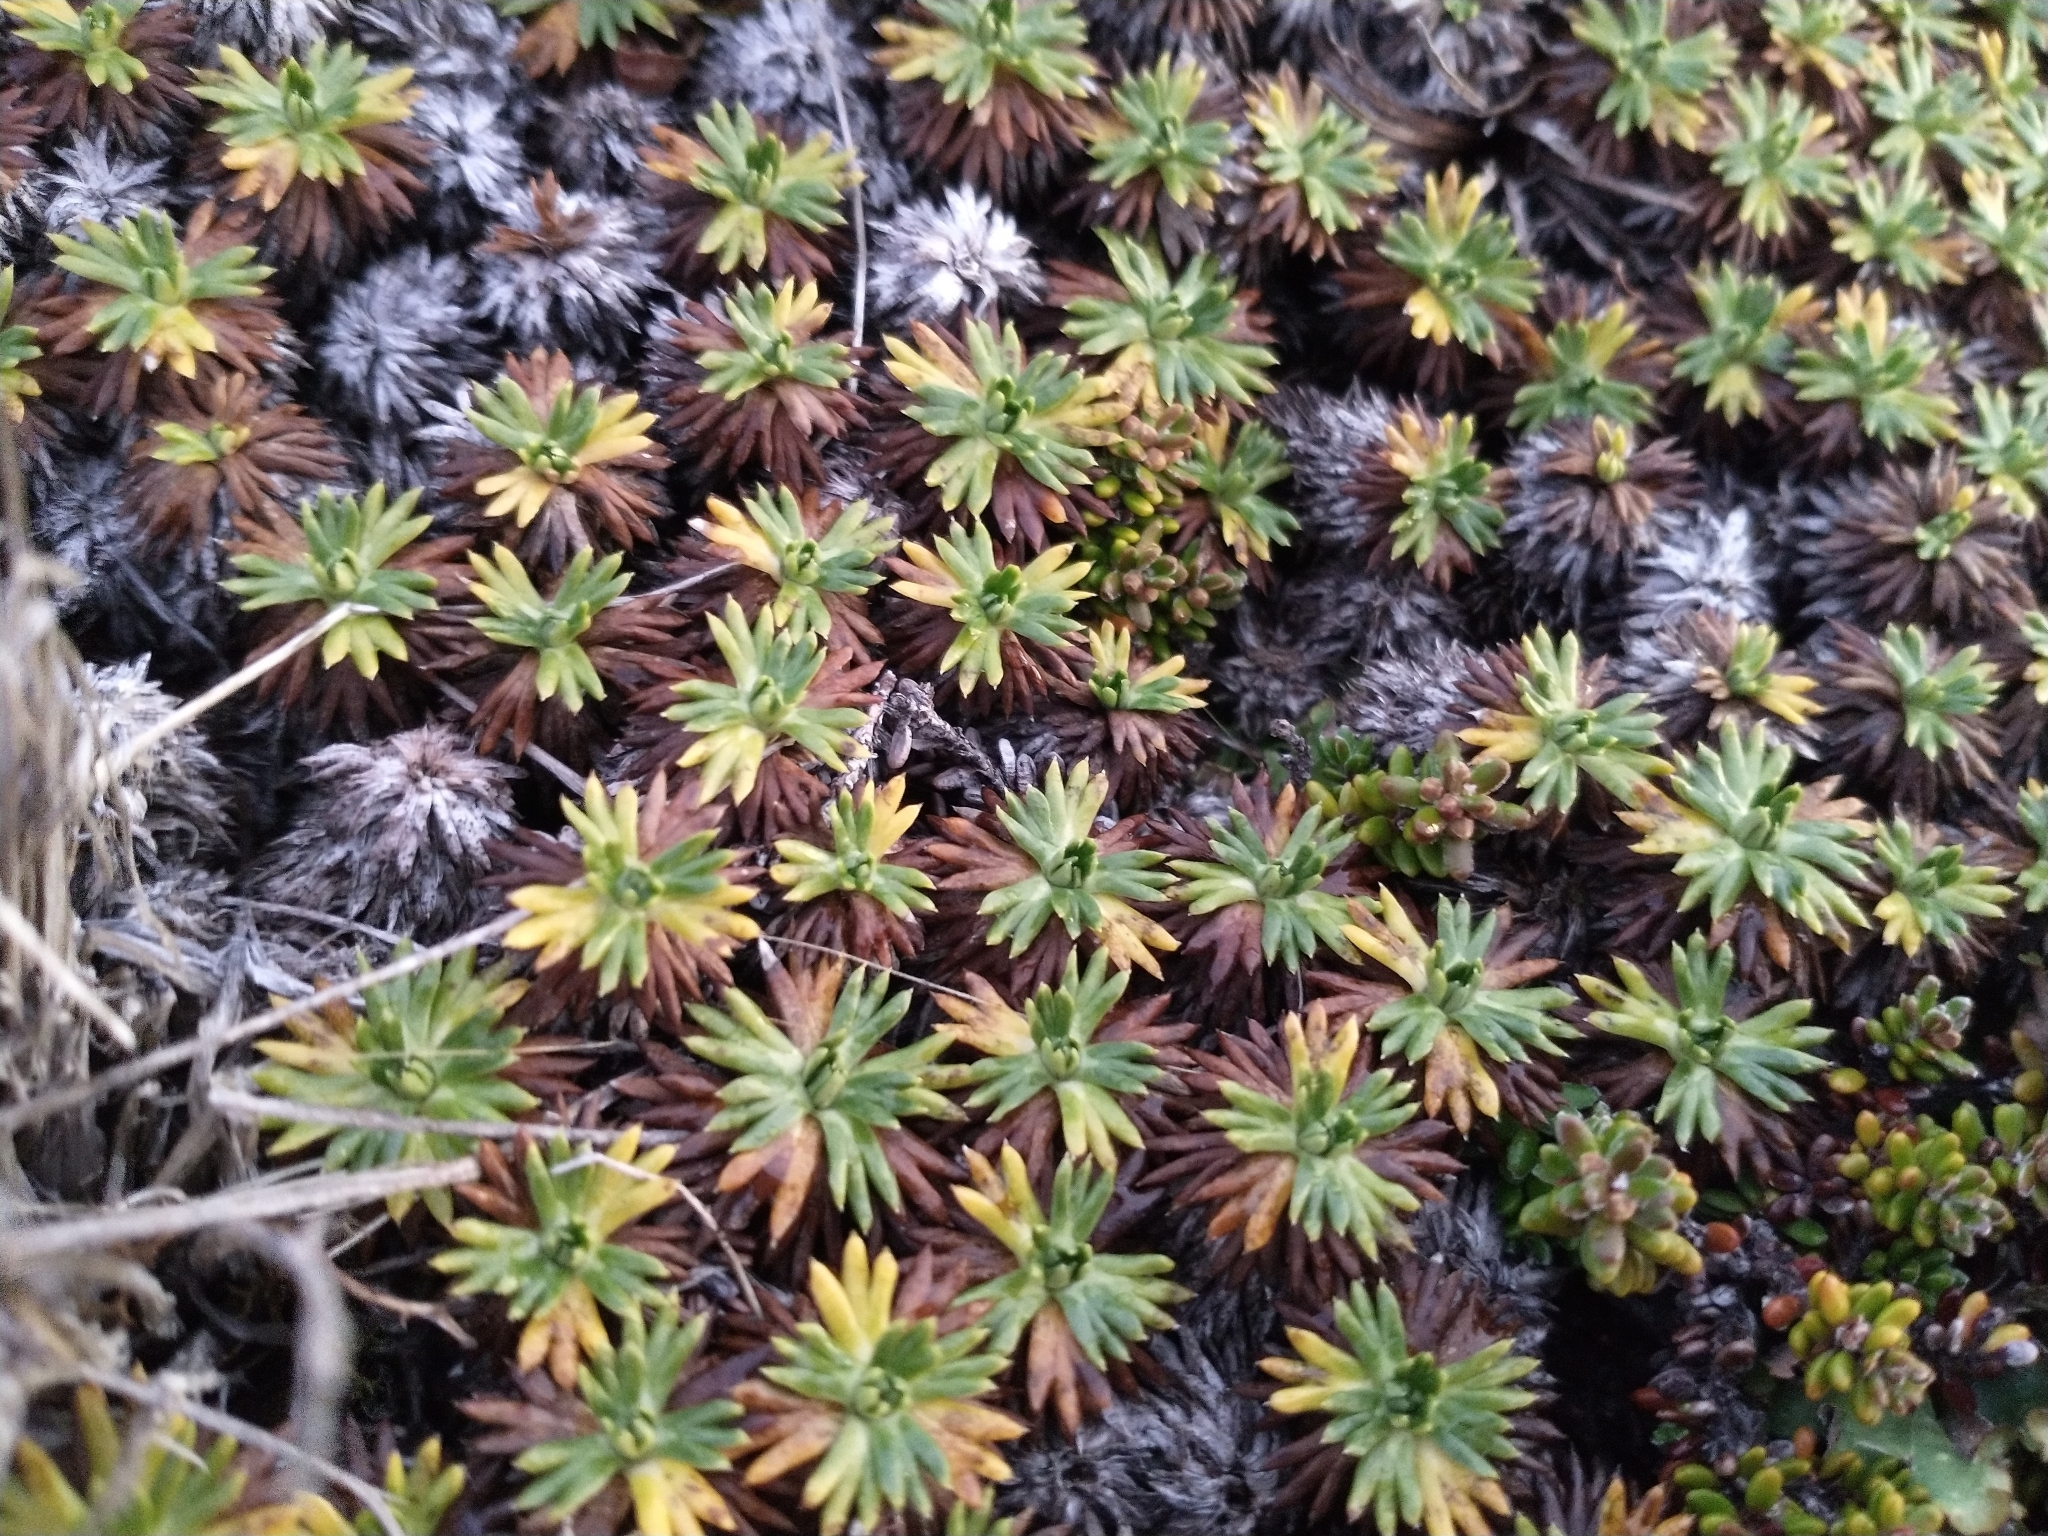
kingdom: Plantae
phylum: Tracheophyta
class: Magnoliopsida
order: Apiales
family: Apiaceae
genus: Azorella
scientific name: Azorella trifurcata
